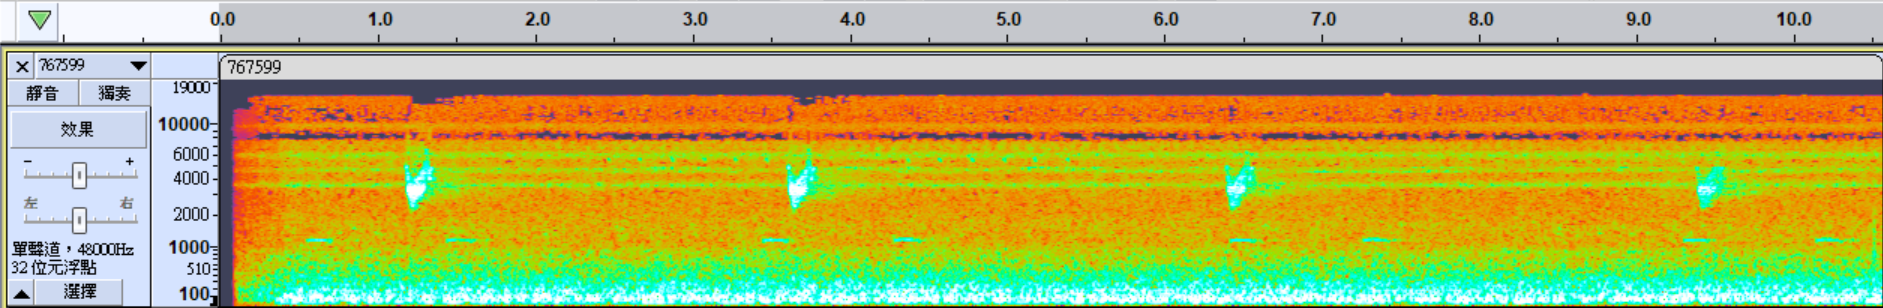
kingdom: Animalia
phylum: Chordata
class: Aves
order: Gruiformes
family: Rallidae
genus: Rallina
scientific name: Rallina eurizonoides
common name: Slaty-legged crake
